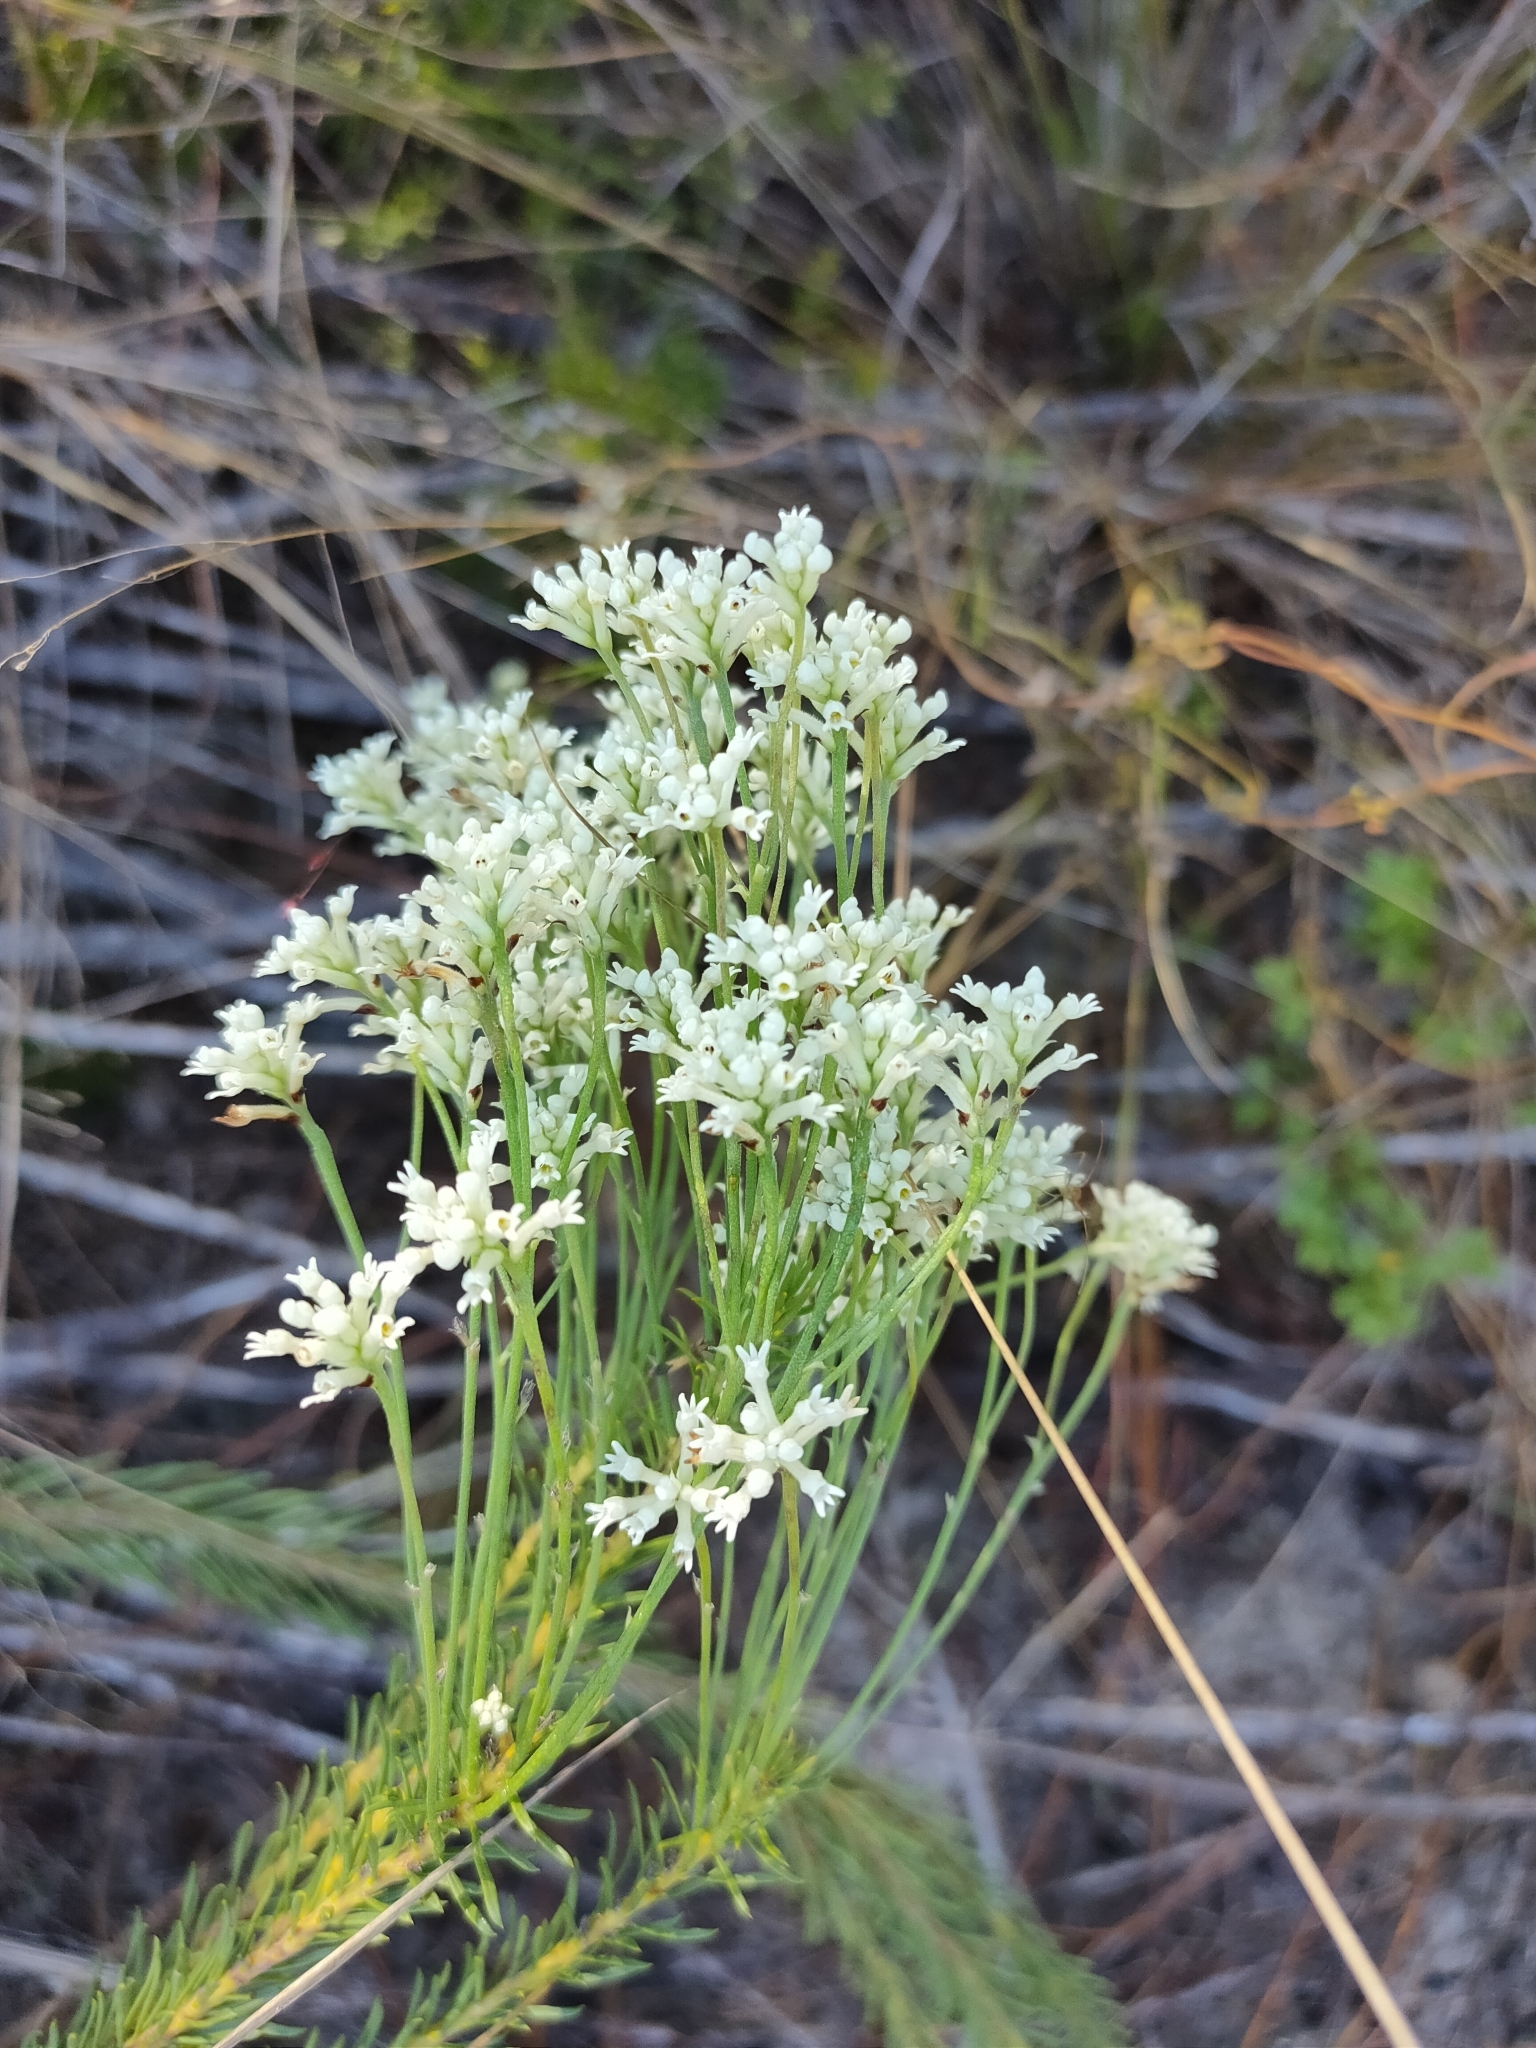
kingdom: Plantae
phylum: Tracheophyta
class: Magnoliopsida
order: Proteales
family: Proteaceae
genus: Conospermum
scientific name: Conospermum taxifolium
